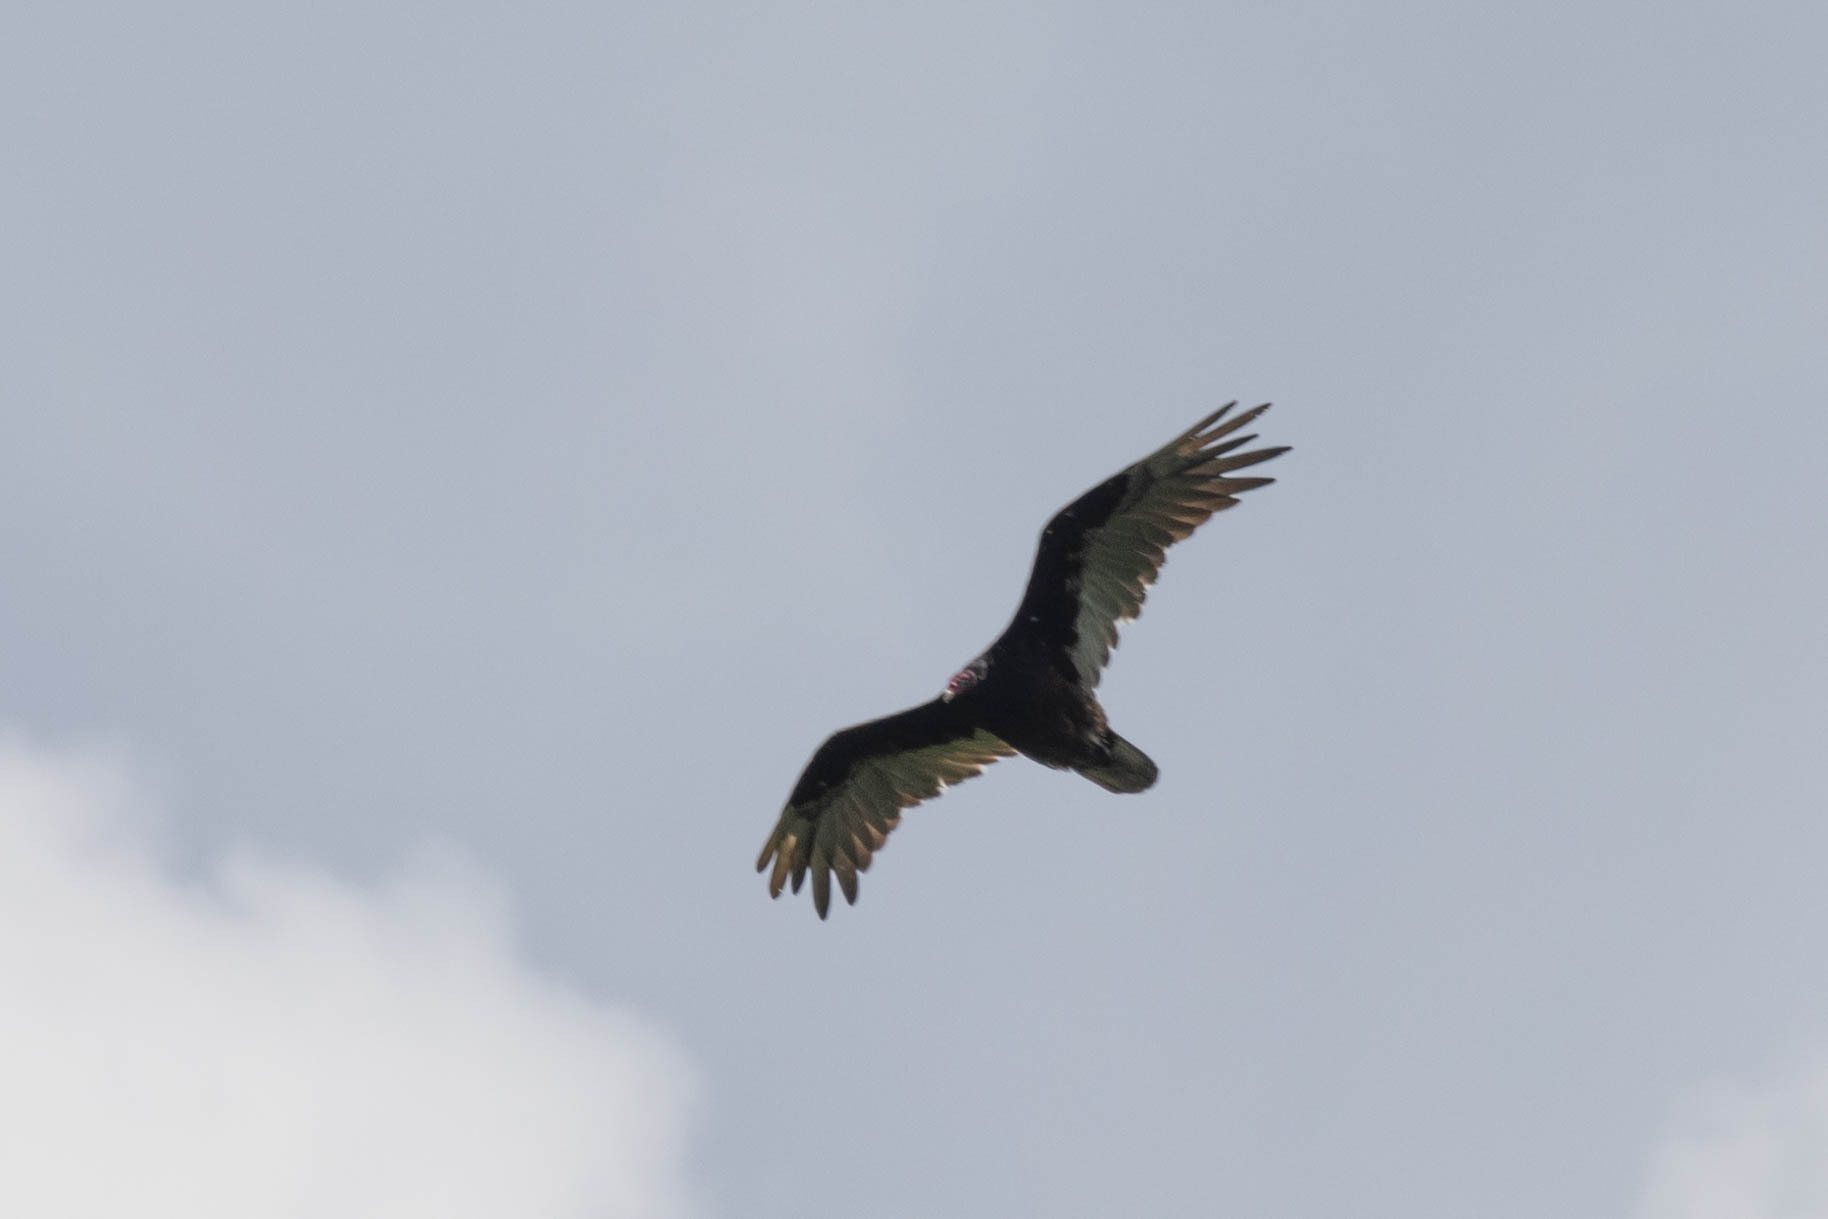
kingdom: Animalia
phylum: Chordata
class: Aves
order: Accipitriformes
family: Cathartidae
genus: Cathartes
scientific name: Cathartes aura
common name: Turkey vulture
